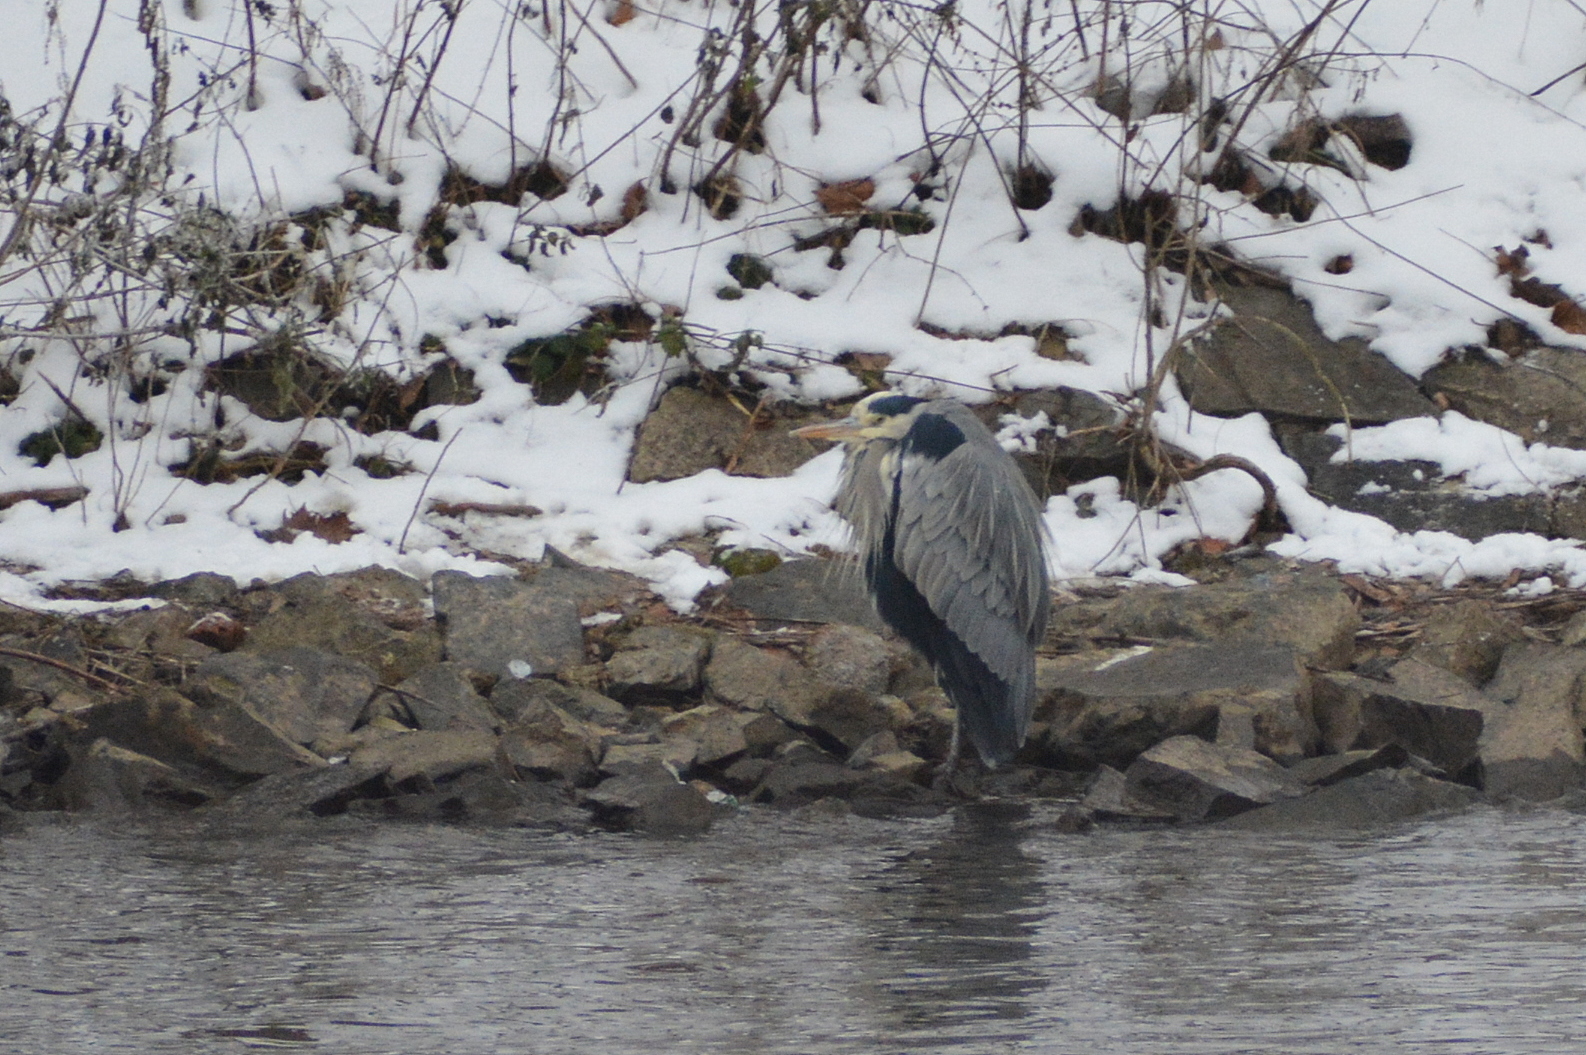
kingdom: Animalia
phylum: Chordata
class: Aves
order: Pelecaniformes
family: Ardeidae
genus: Ardea
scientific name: Ardea cinerea
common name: Grey heron
